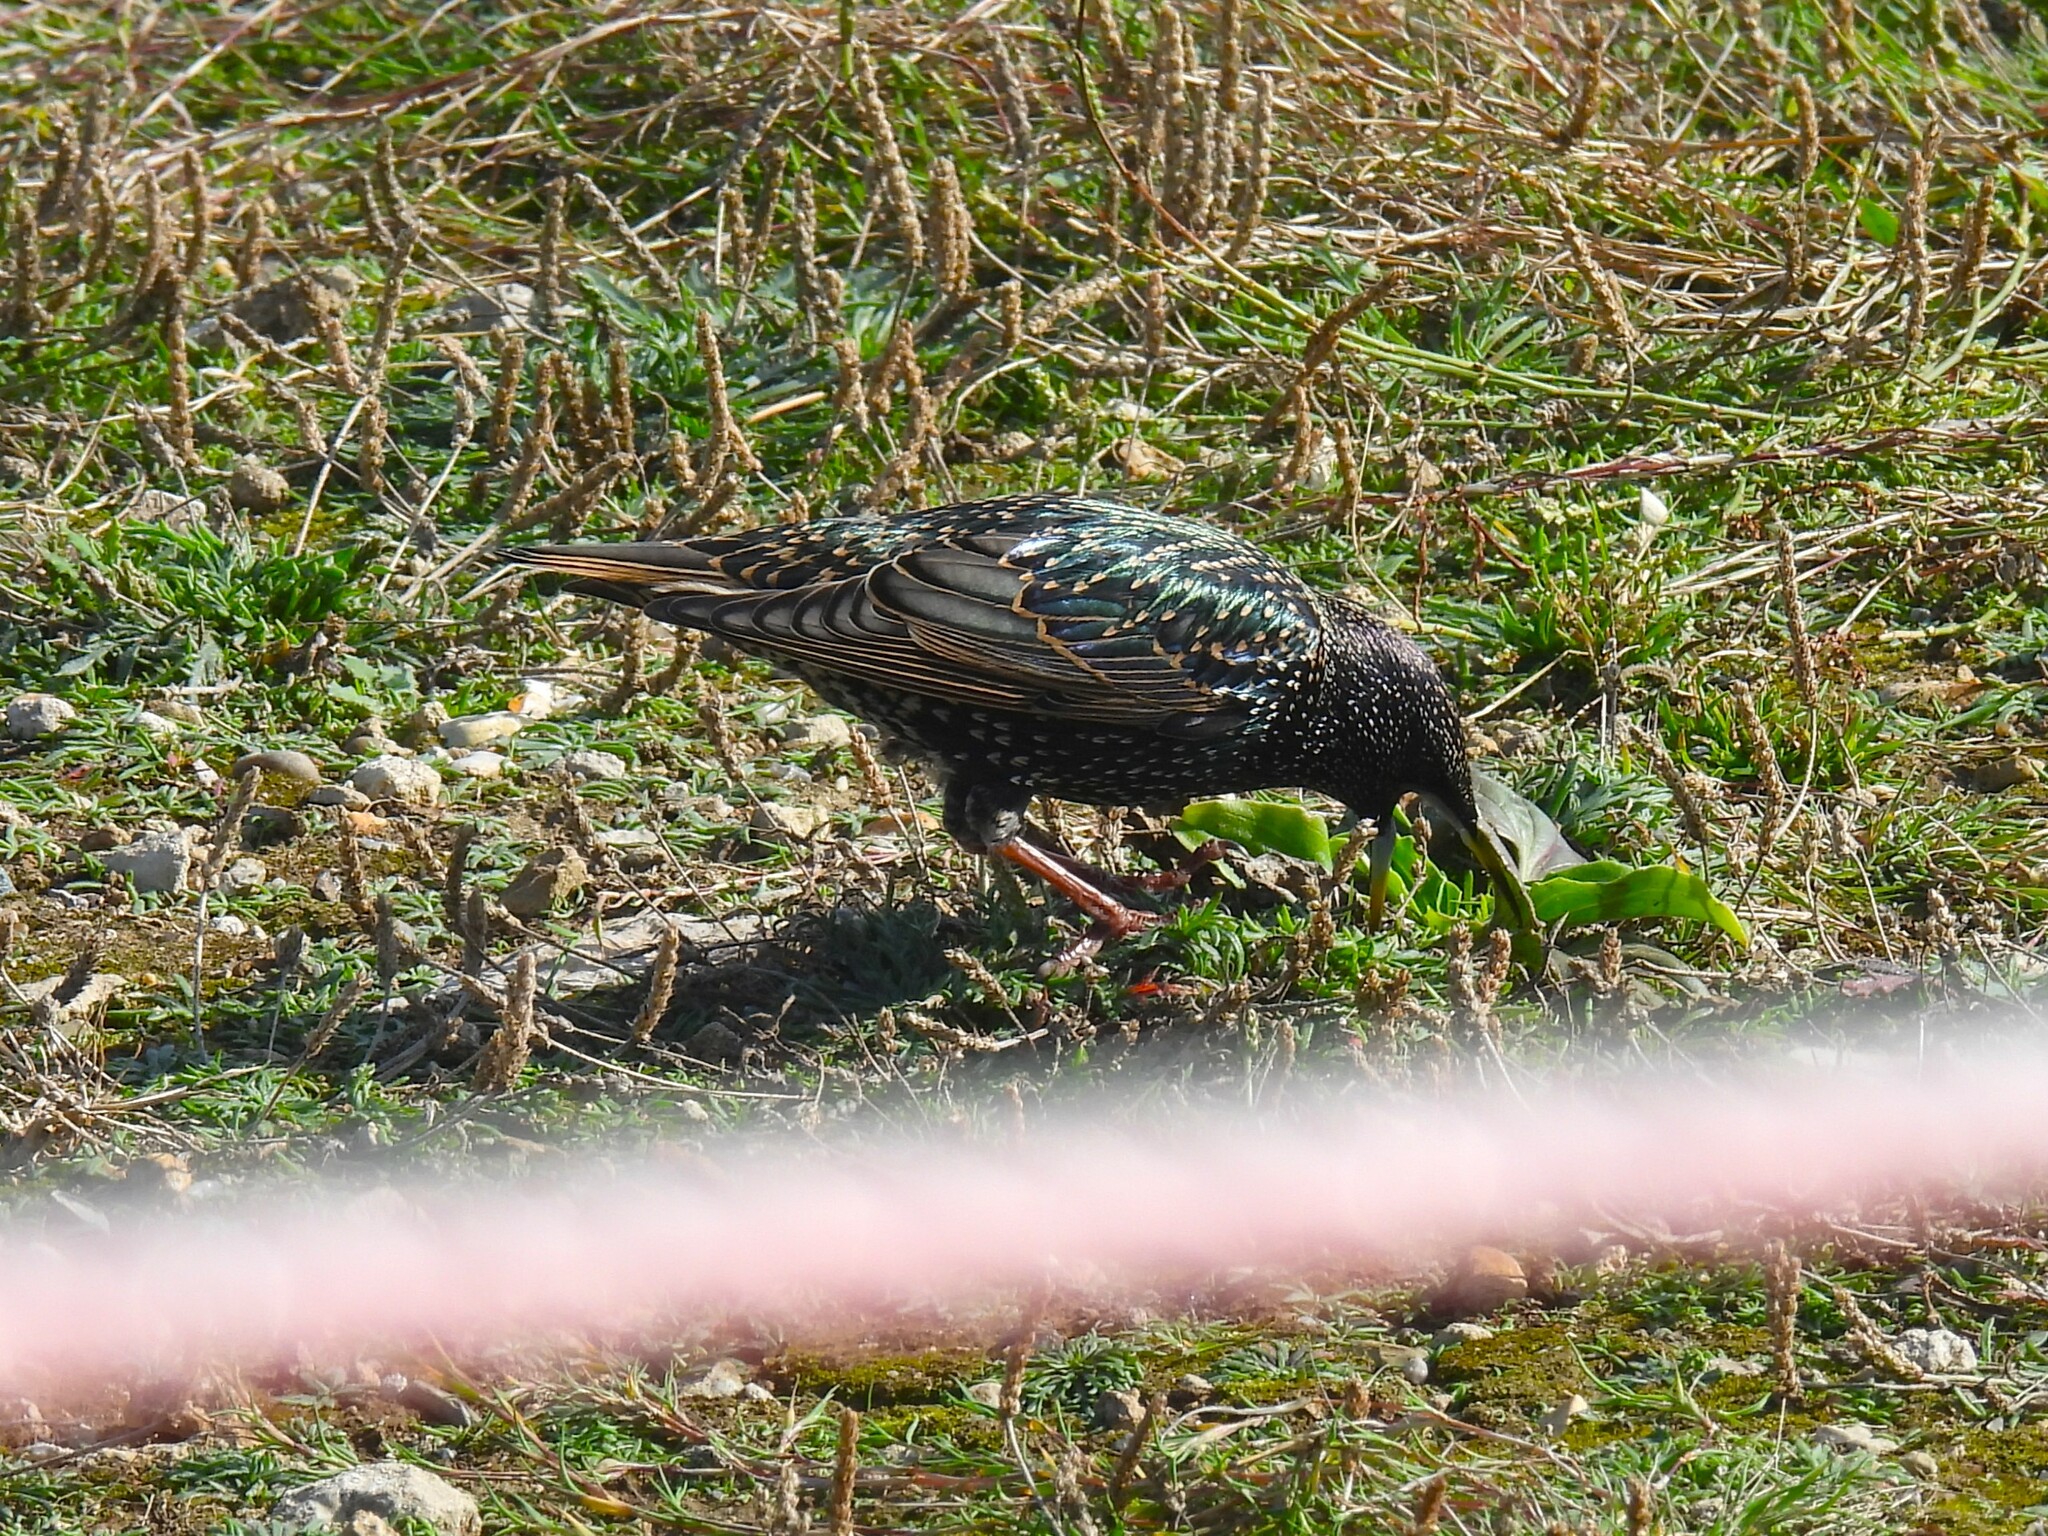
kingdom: Animalia
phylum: Chordata
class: Aves
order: Passeriformes
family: Sturnidae
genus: Sturnus
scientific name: Sturnus vulgaris
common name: Common starling
